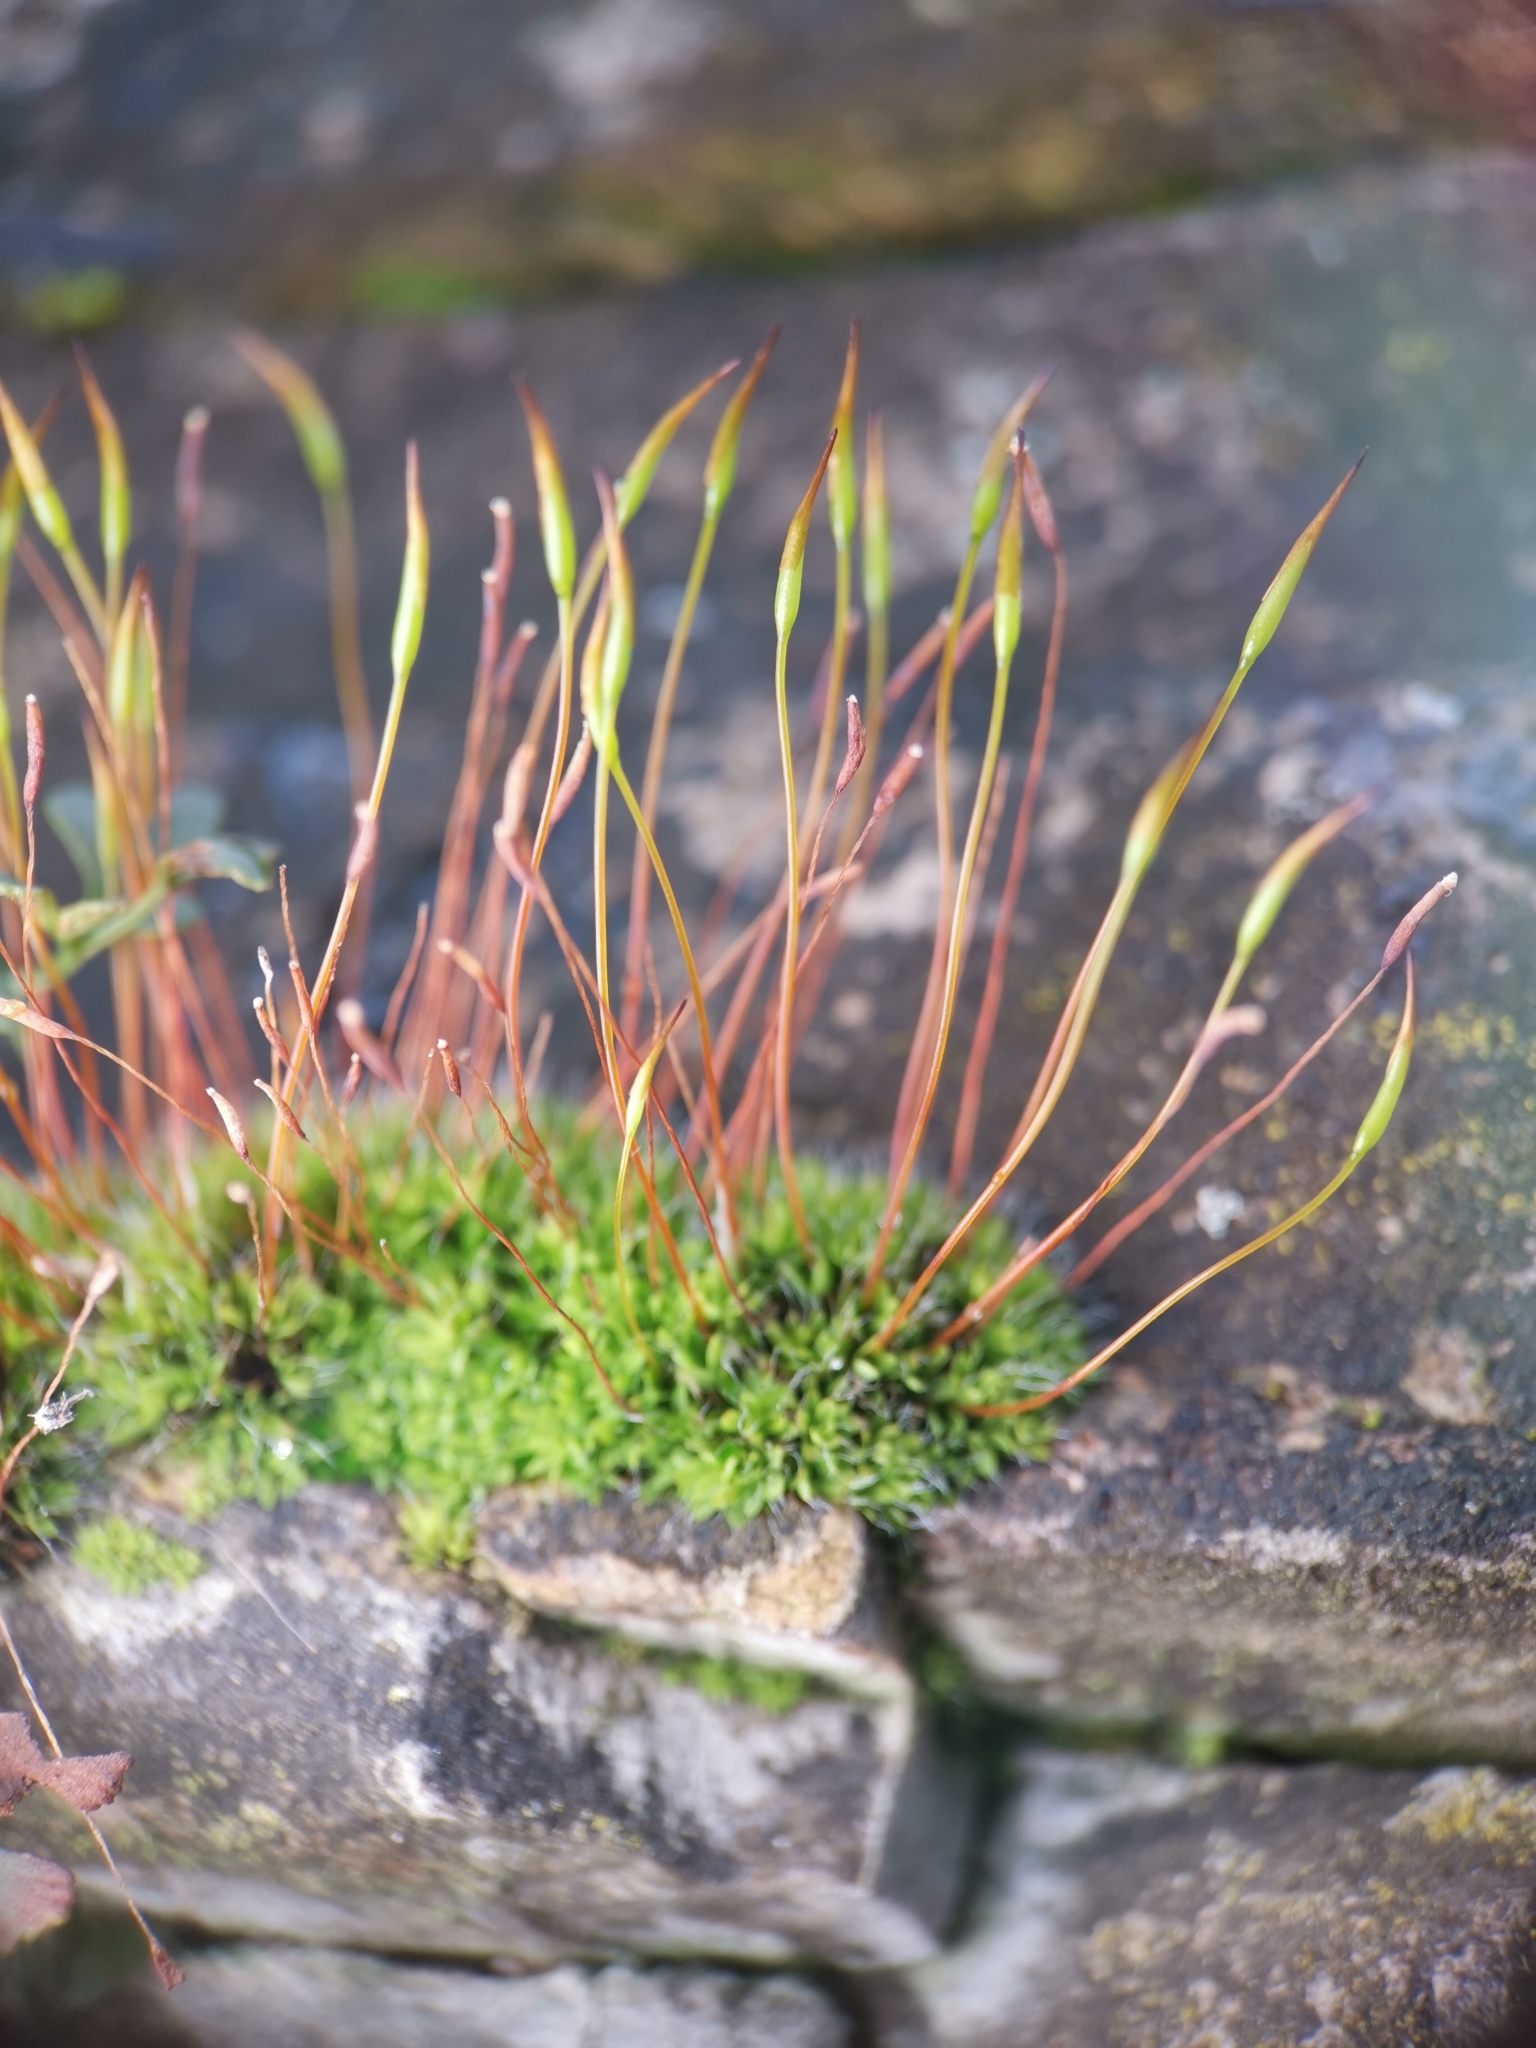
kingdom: Plantae
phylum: Bryophyta
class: Bryopsida
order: Pottiales
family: Pottiaceae
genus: Tortula
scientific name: Tortula muralis
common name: Wall screw-moss
